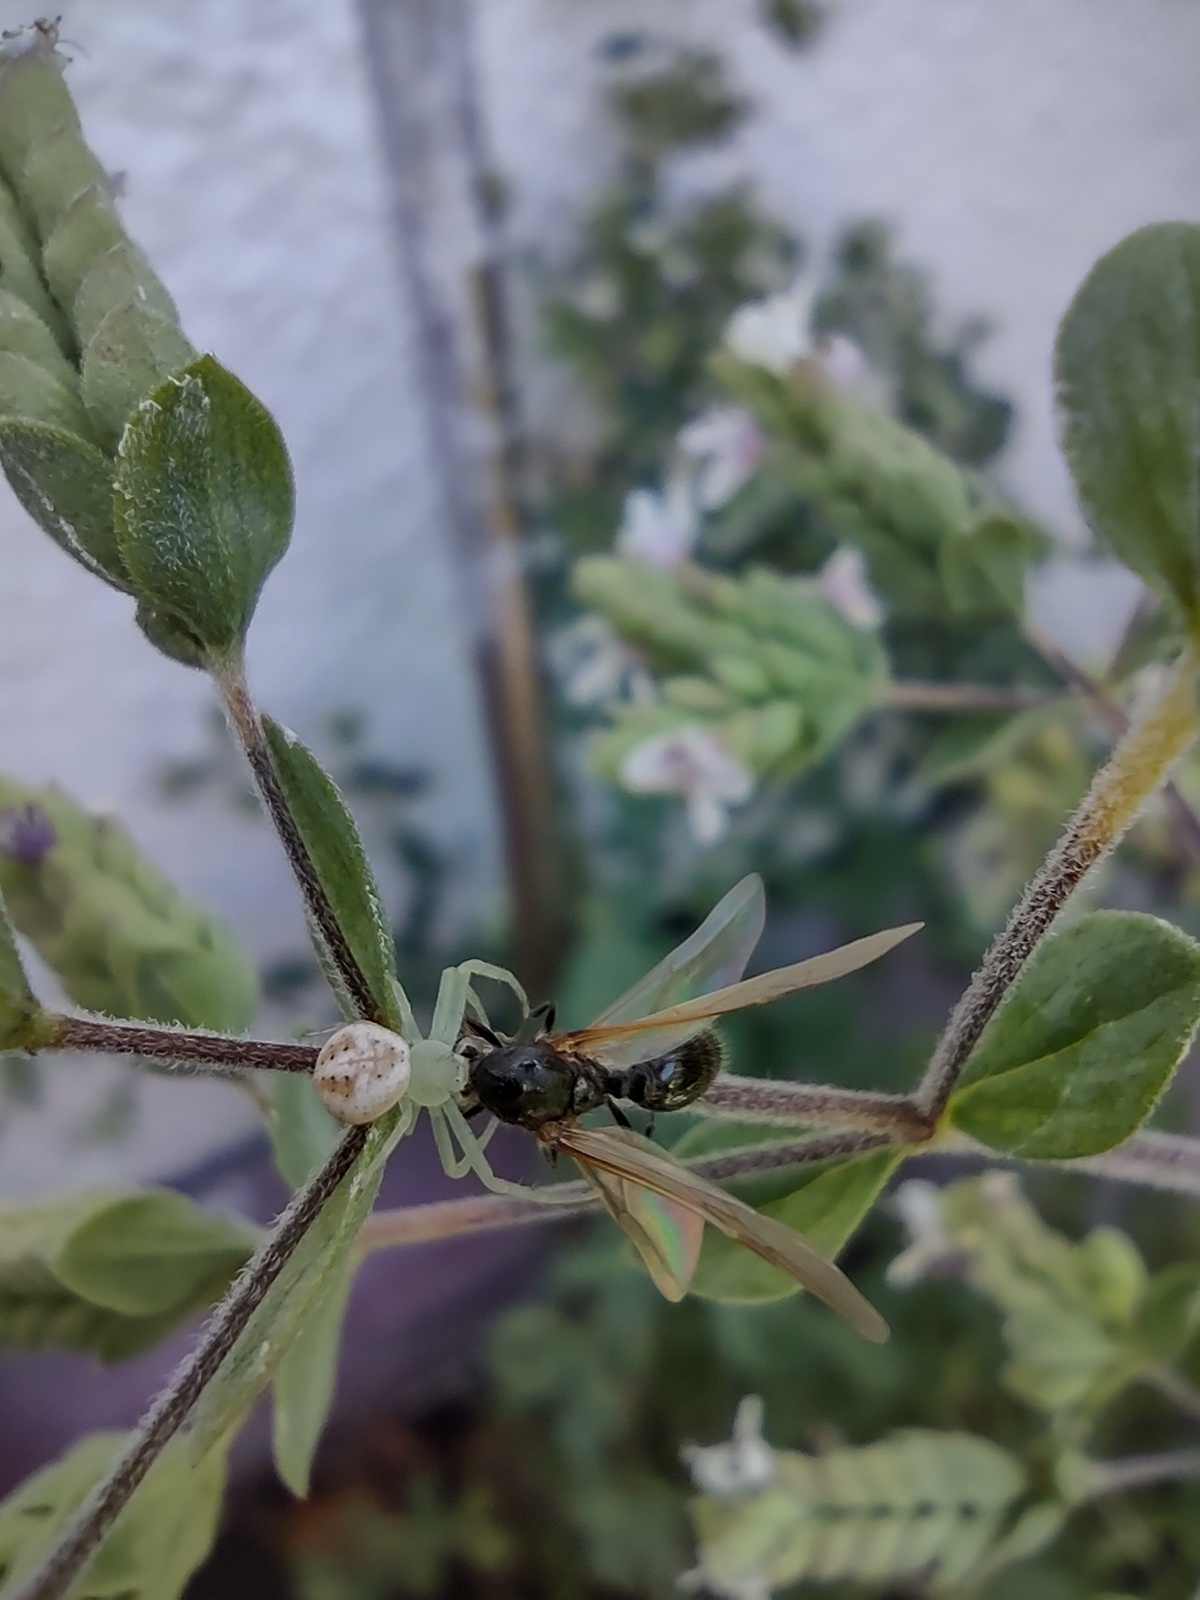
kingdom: Animalia
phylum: Arthropoda
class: Arachnida
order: Araneae
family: Thomisidae
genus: Misumenops
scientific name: Misumenops
